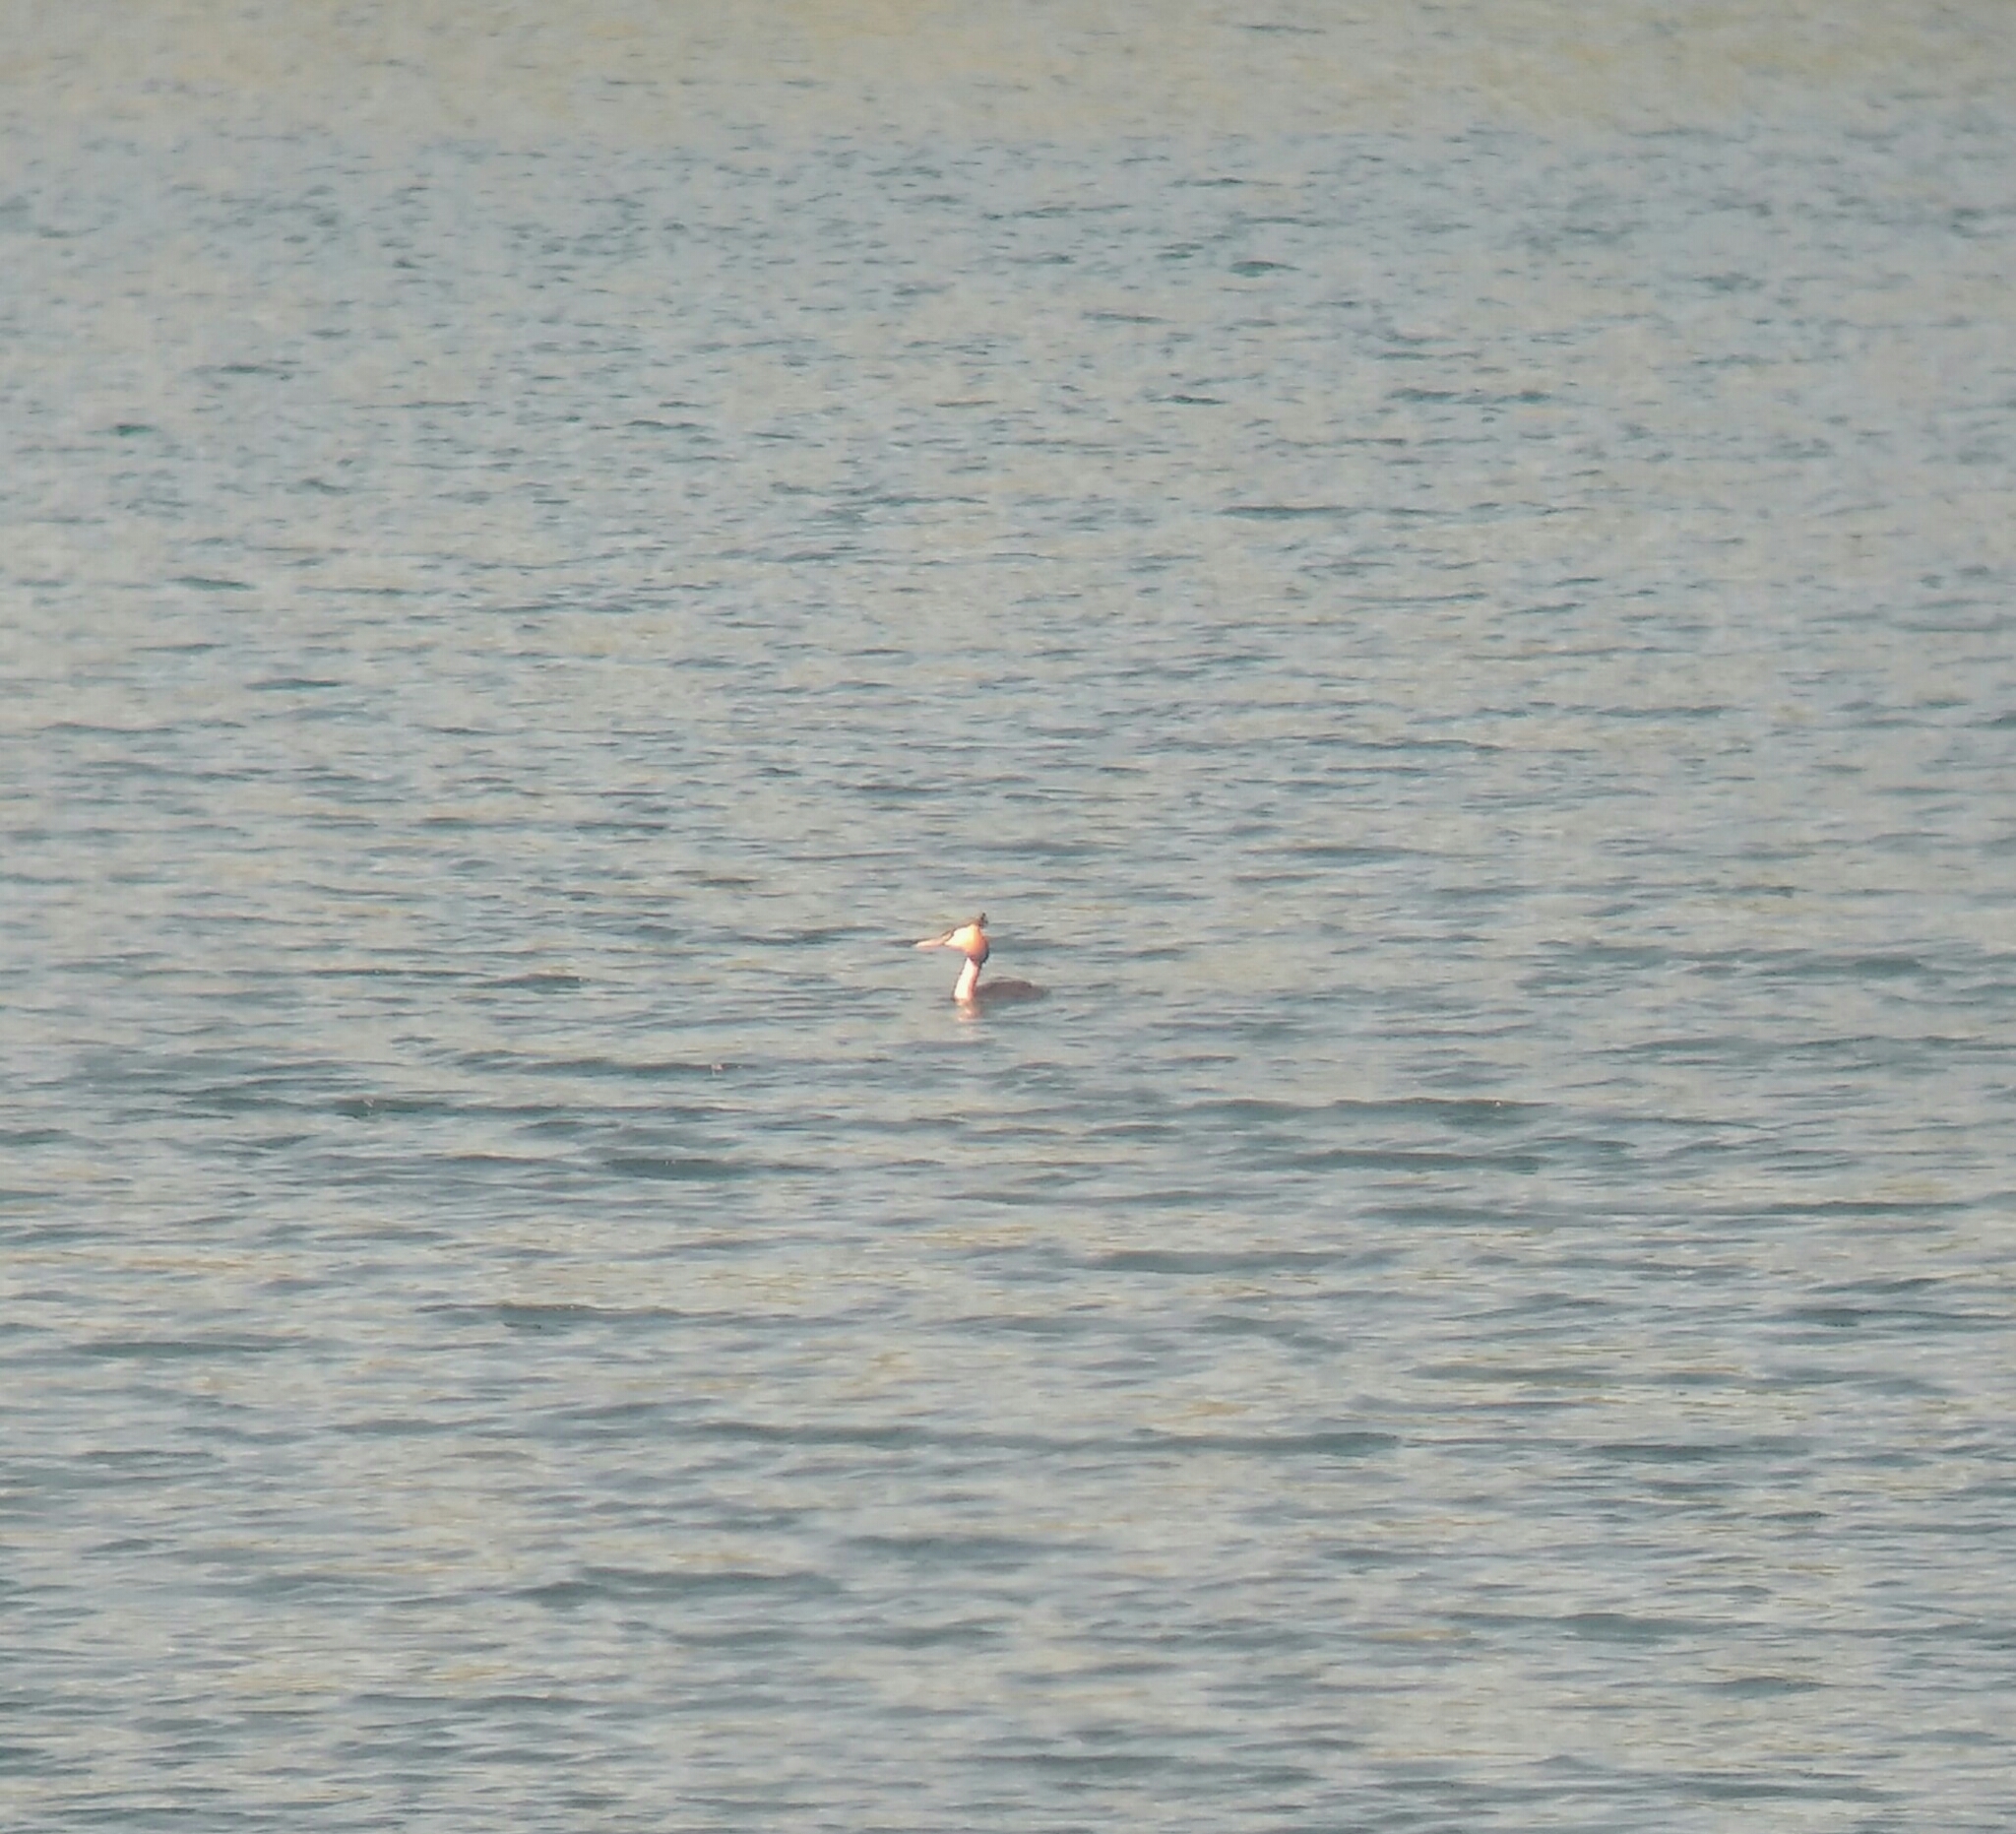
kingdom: Animalia
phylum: Chordata
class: Aves
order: Podicipediformes
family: Podicipedidae
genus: Podiceps
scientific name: Podiceps cristatus
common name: Great crested grebe
